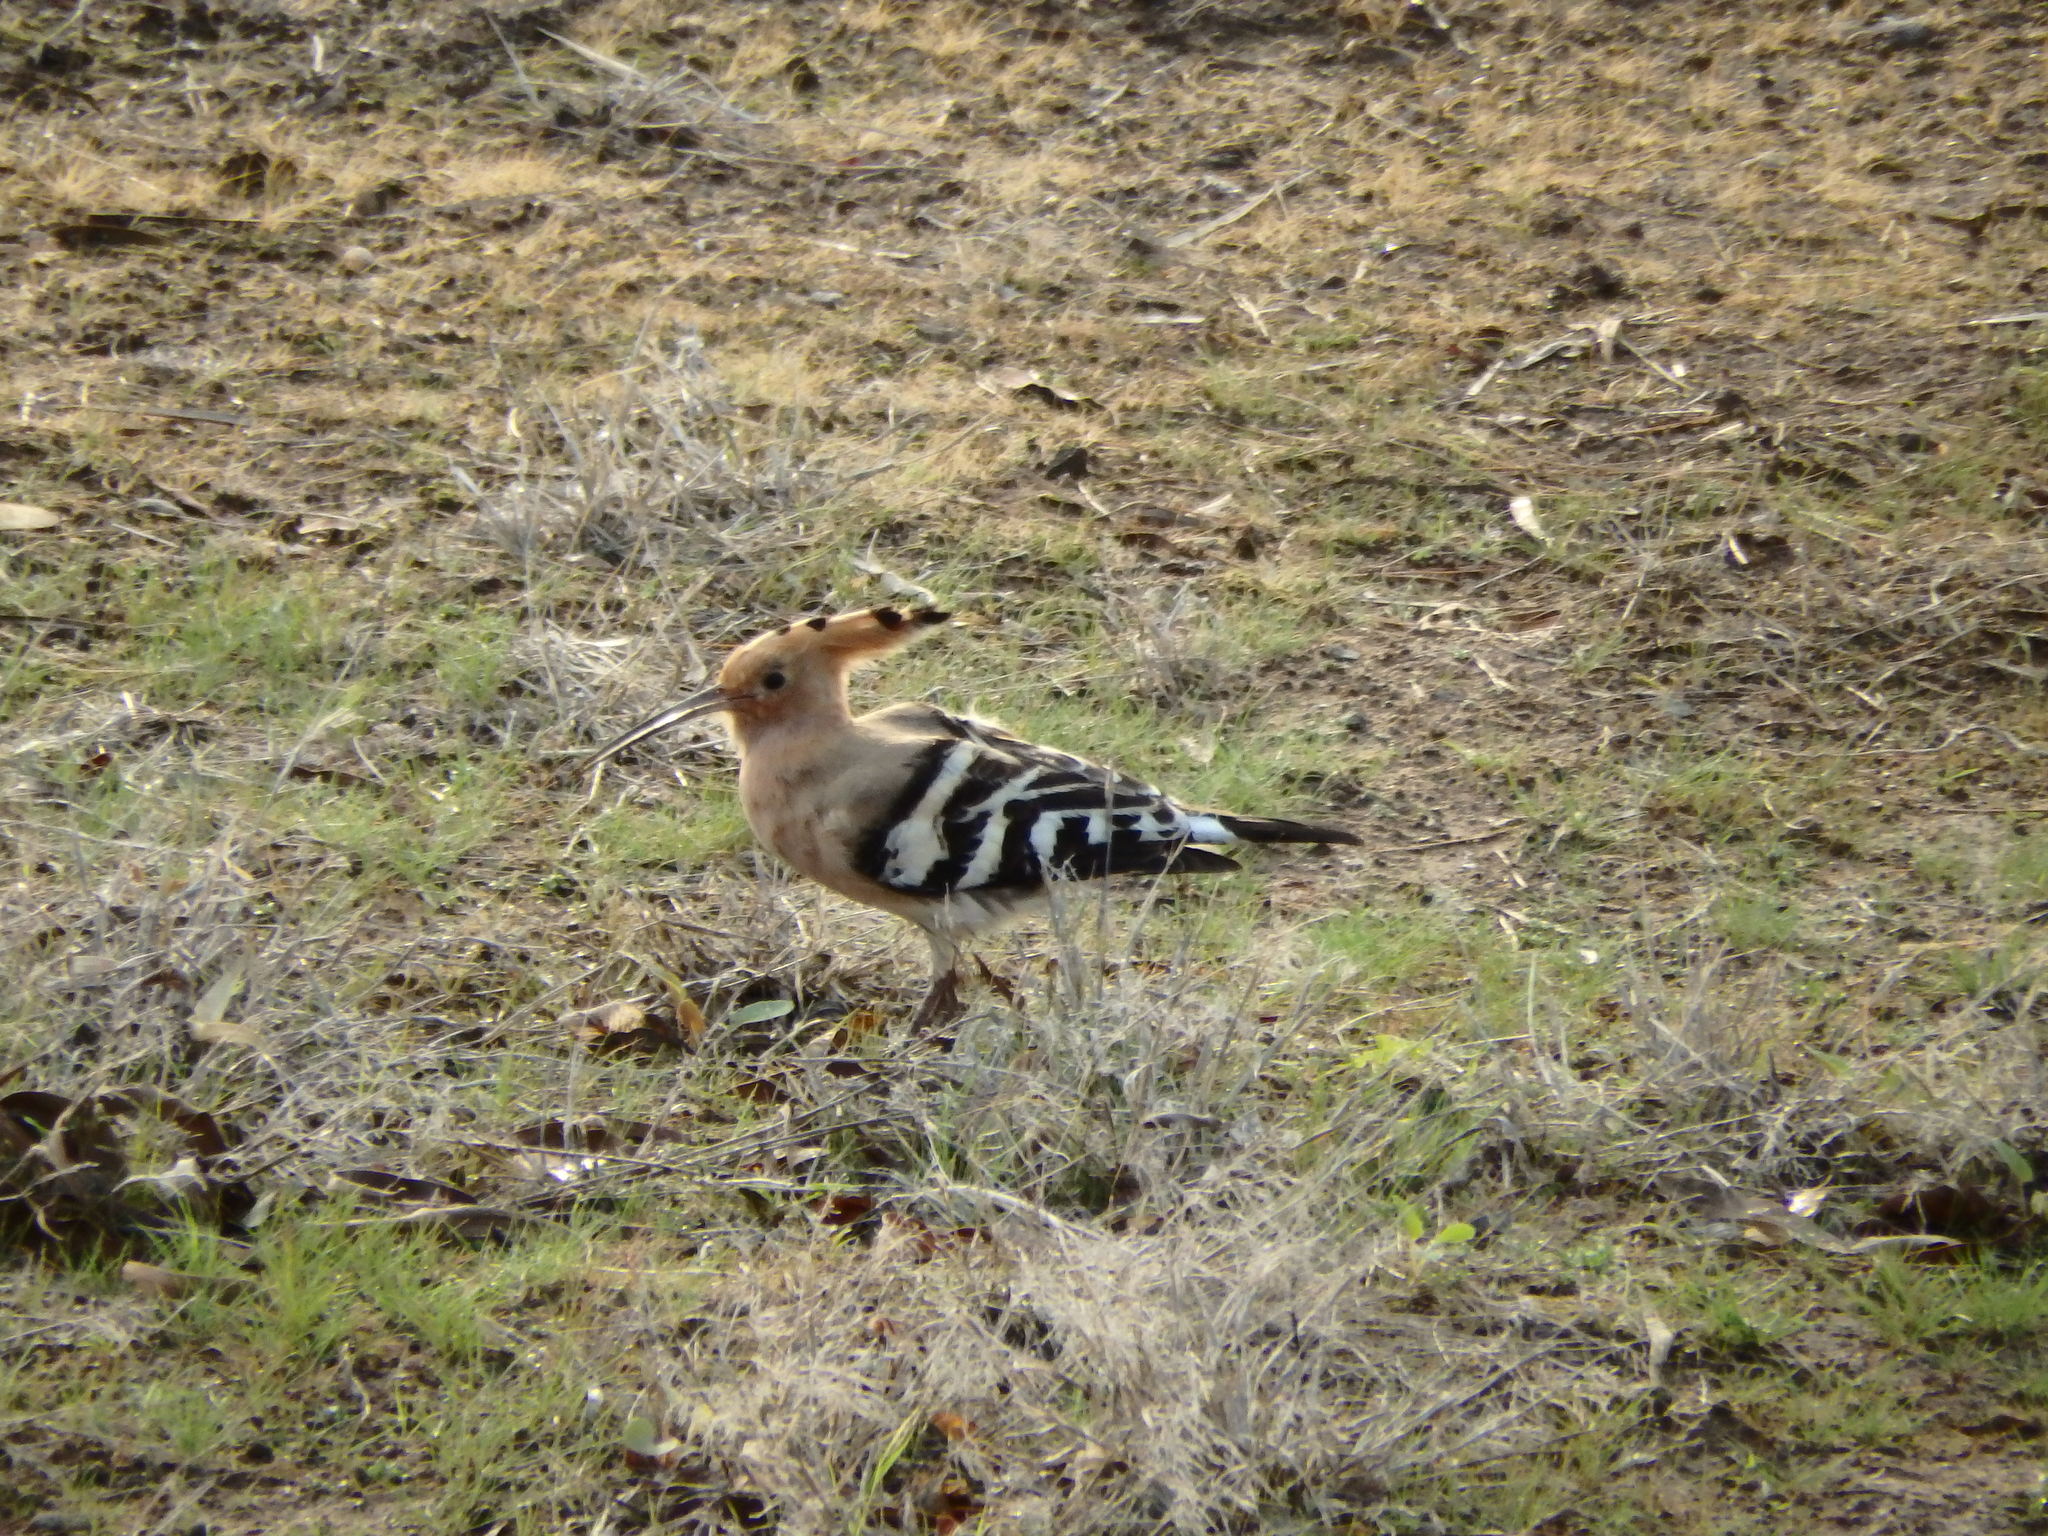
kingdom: Animalia
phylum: Chordata
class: Aves
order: Bucerotiformes
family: Upupidae
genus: Upupa
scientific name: Upupa epops
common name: Eurasian hoopoe
